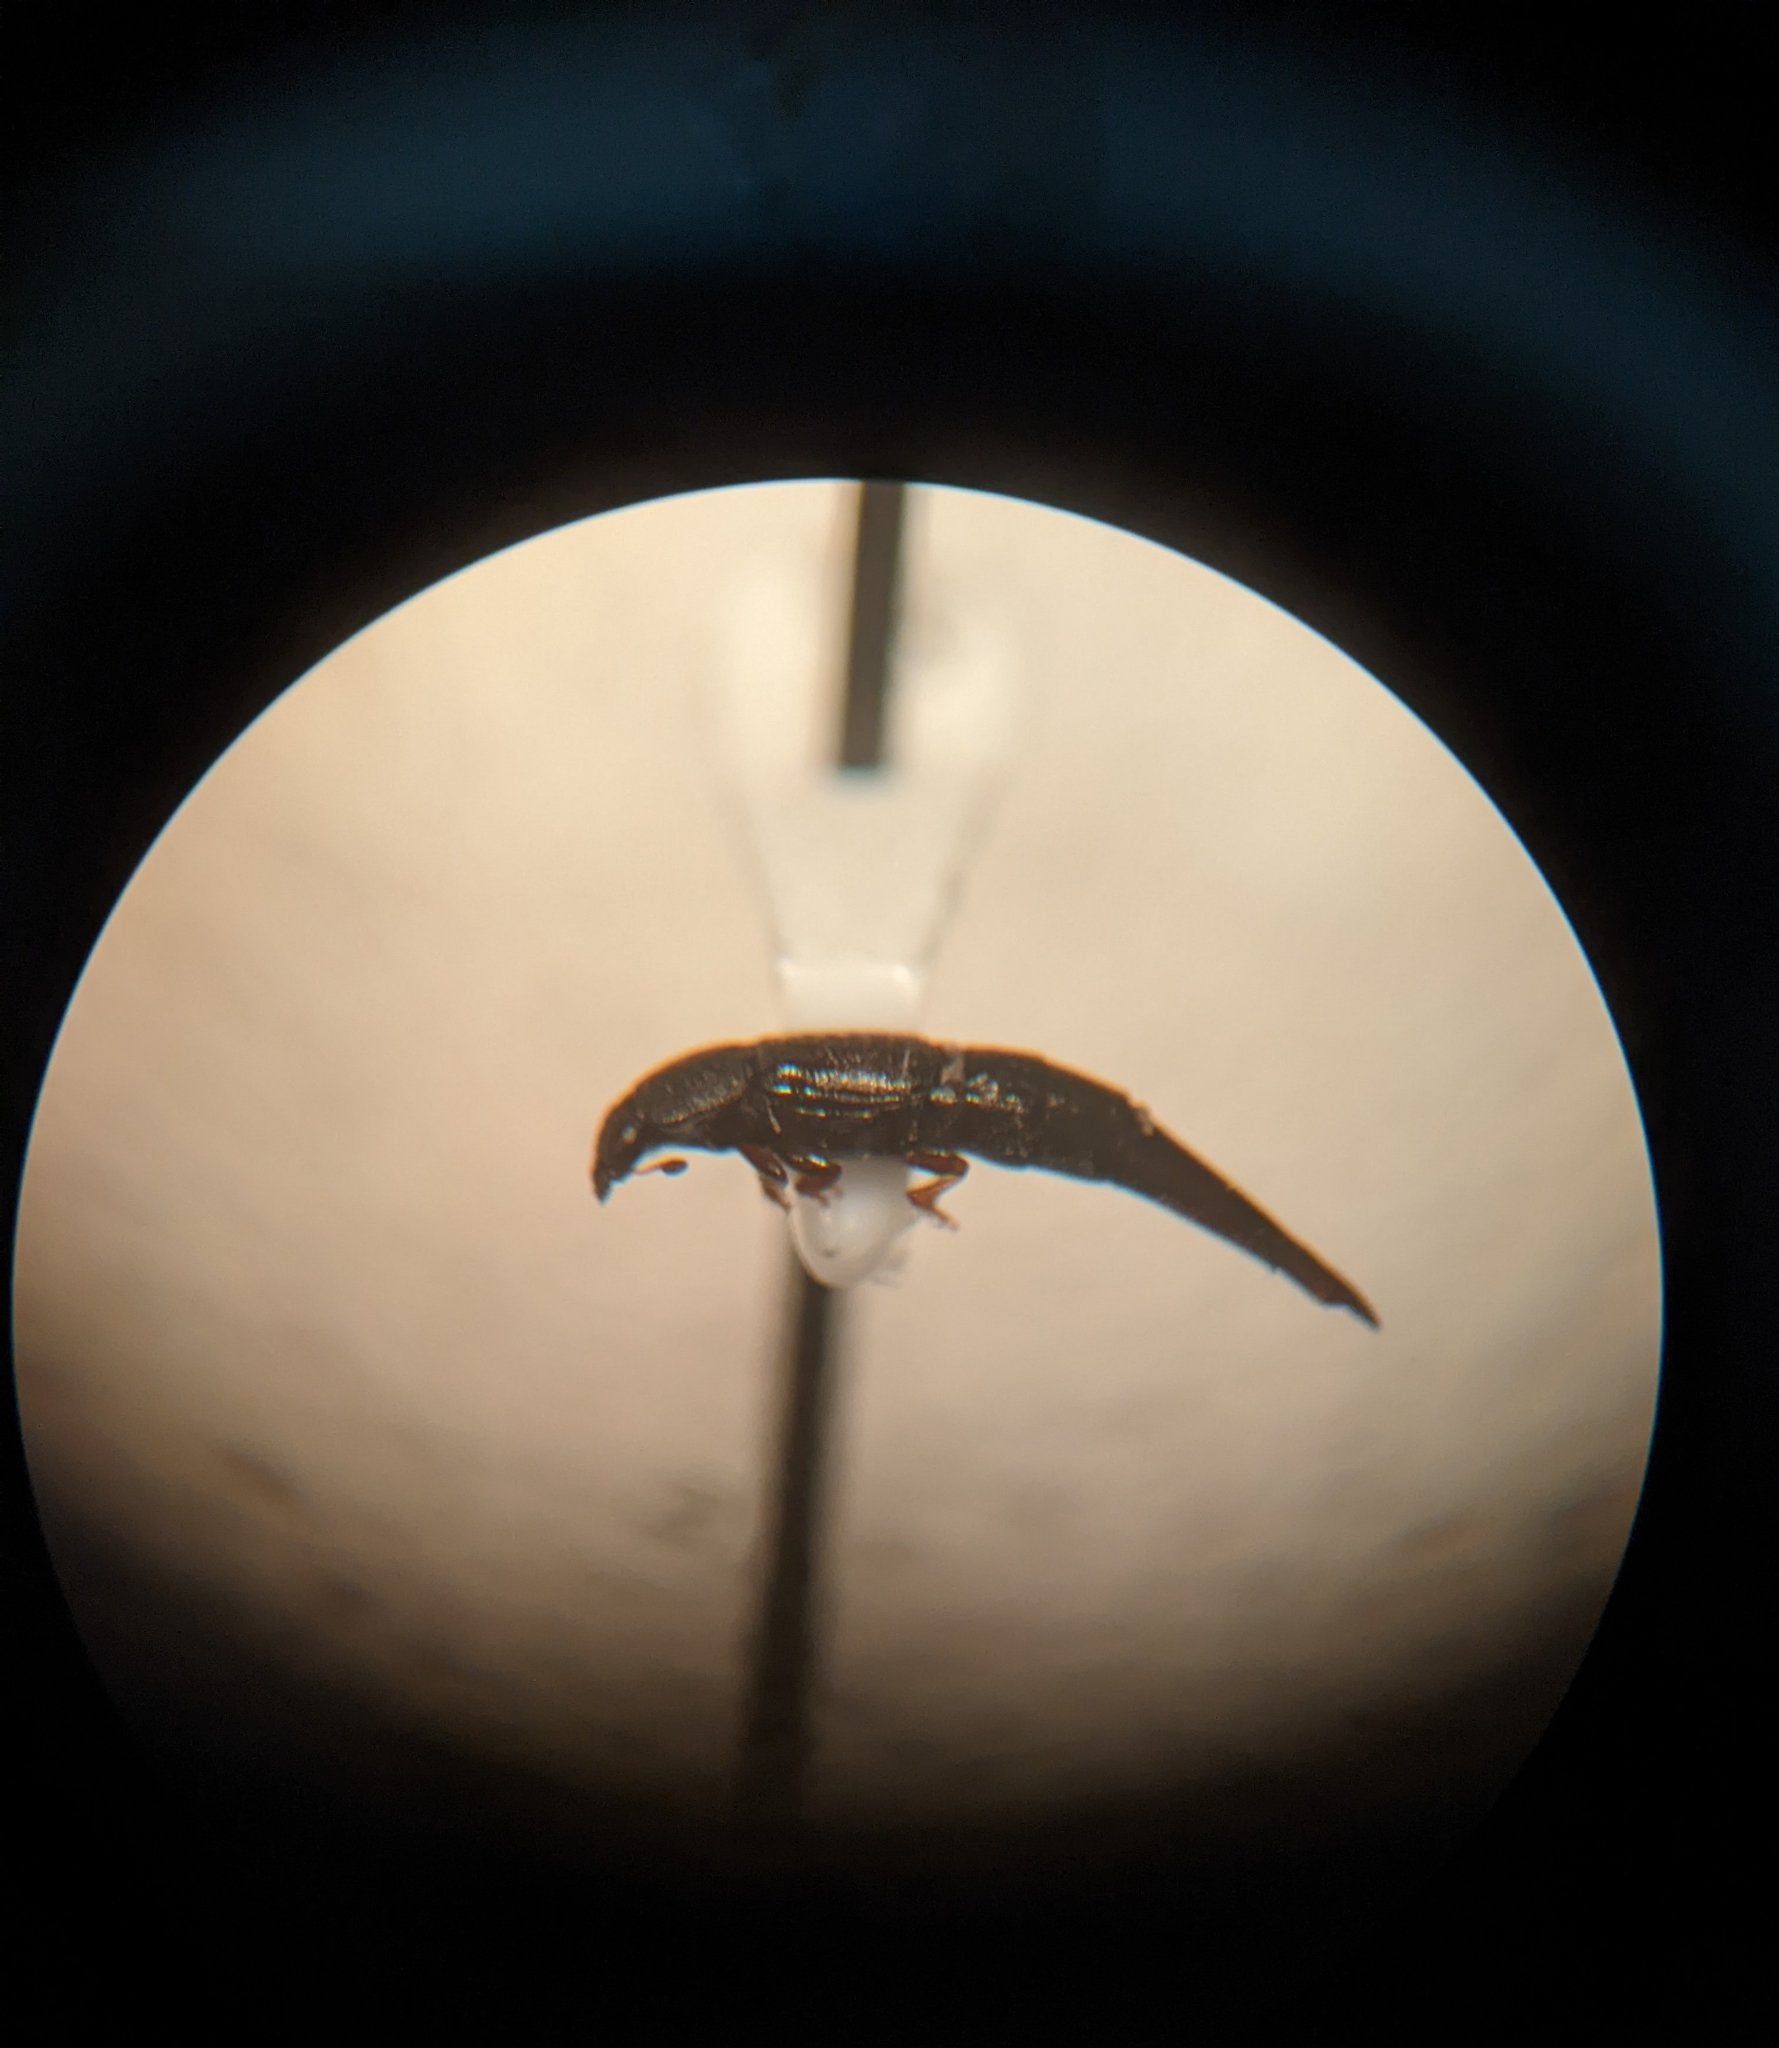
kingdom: Animalia
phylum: Arthropoda
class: Insecta
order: Coleoptera
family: Nitidulidae
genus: Conotelus
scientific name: Conotelus obscurus
